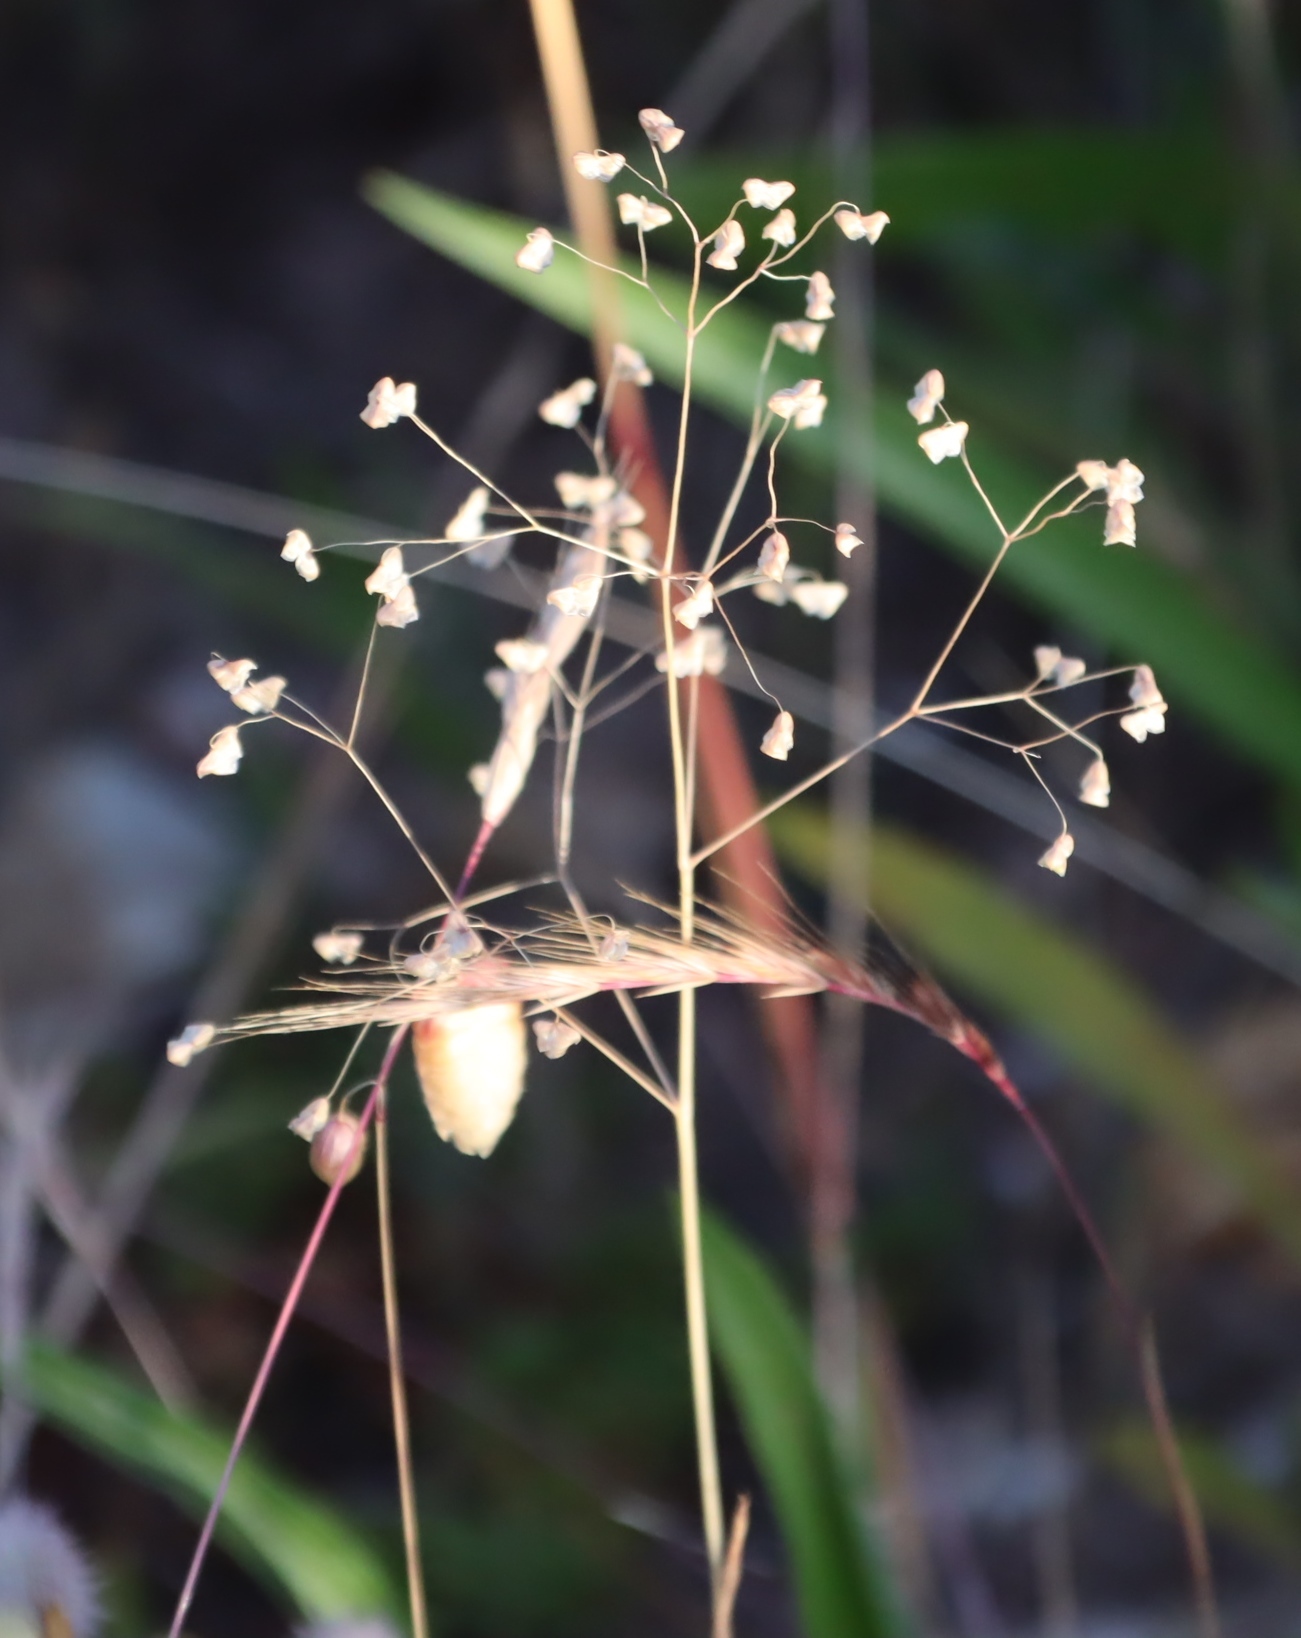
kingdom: Plantae
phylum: Tracheophyta
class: Liliopsida
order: Poales
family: Poaceae
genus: Briza
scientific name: Briza minor
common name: Lesser quaking-grass
